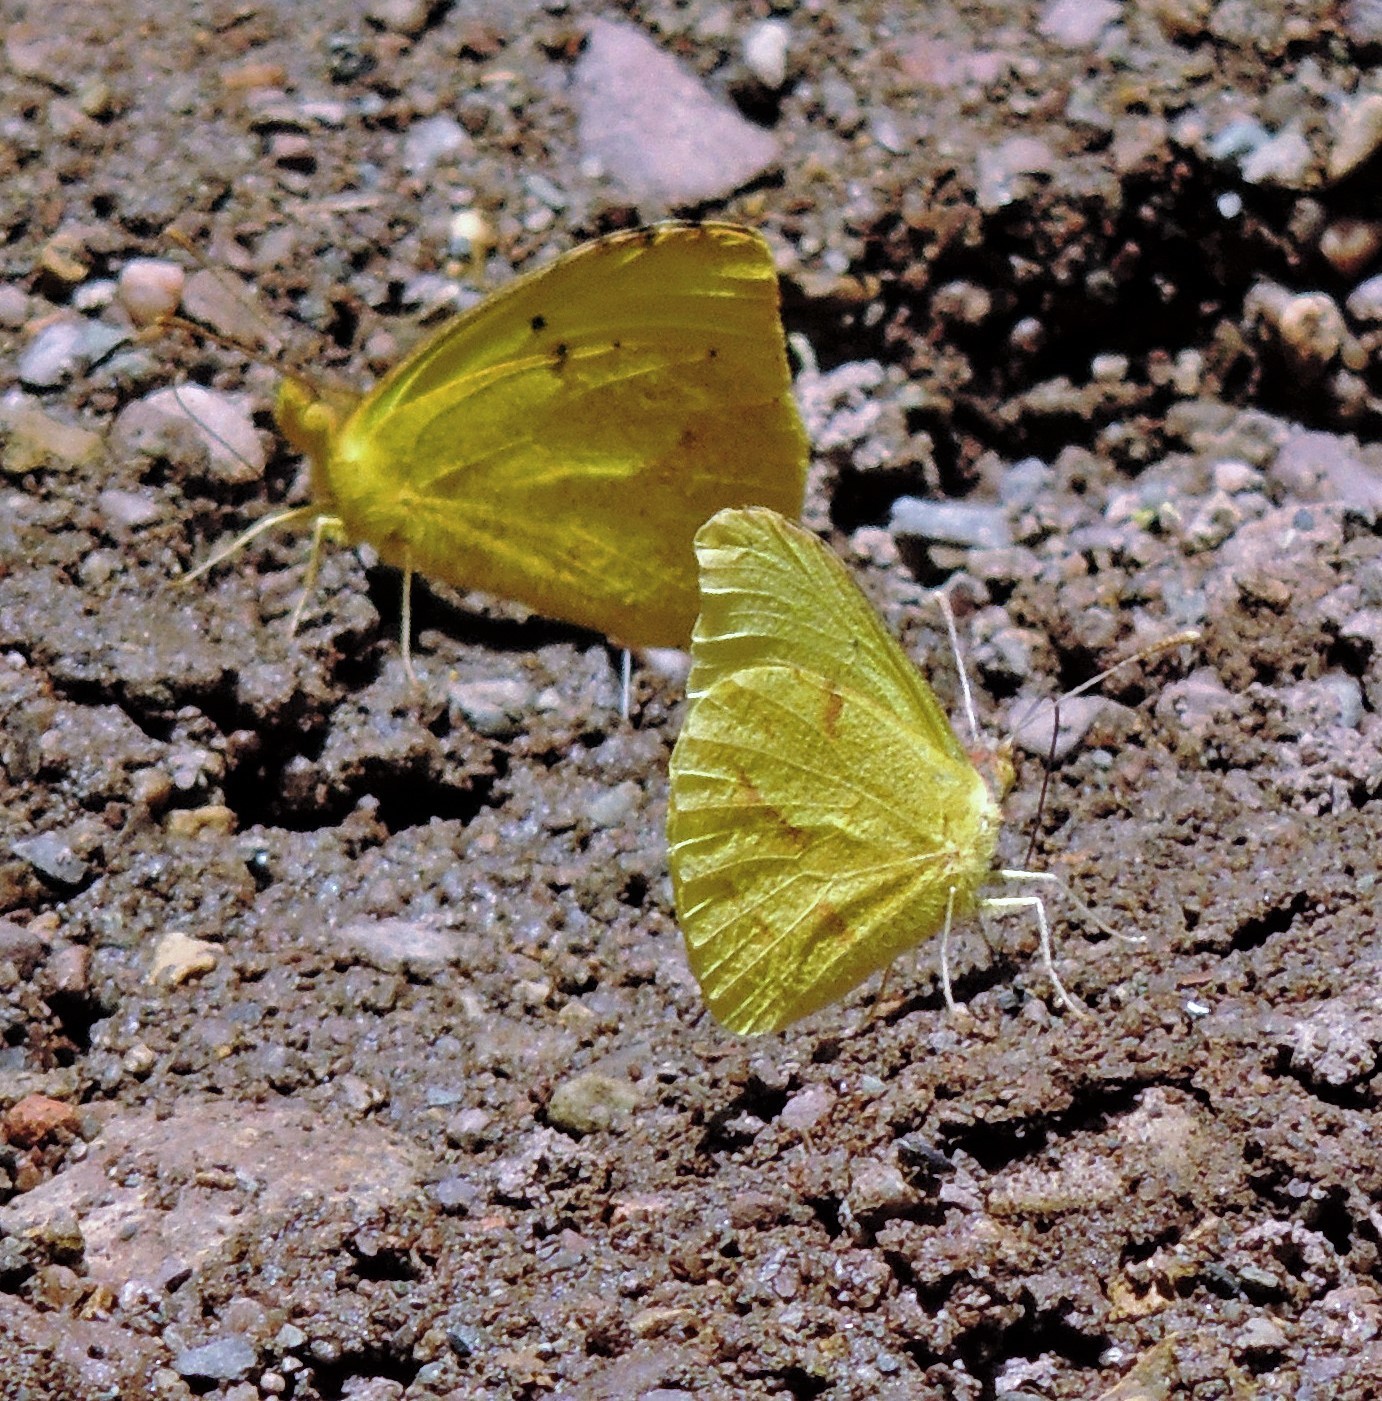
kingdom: Animalia
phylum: Arthropoda
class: Insecta
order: Lepidoptera
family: Pieridae
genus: Teriocolias
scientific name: Teriocolias zelia
